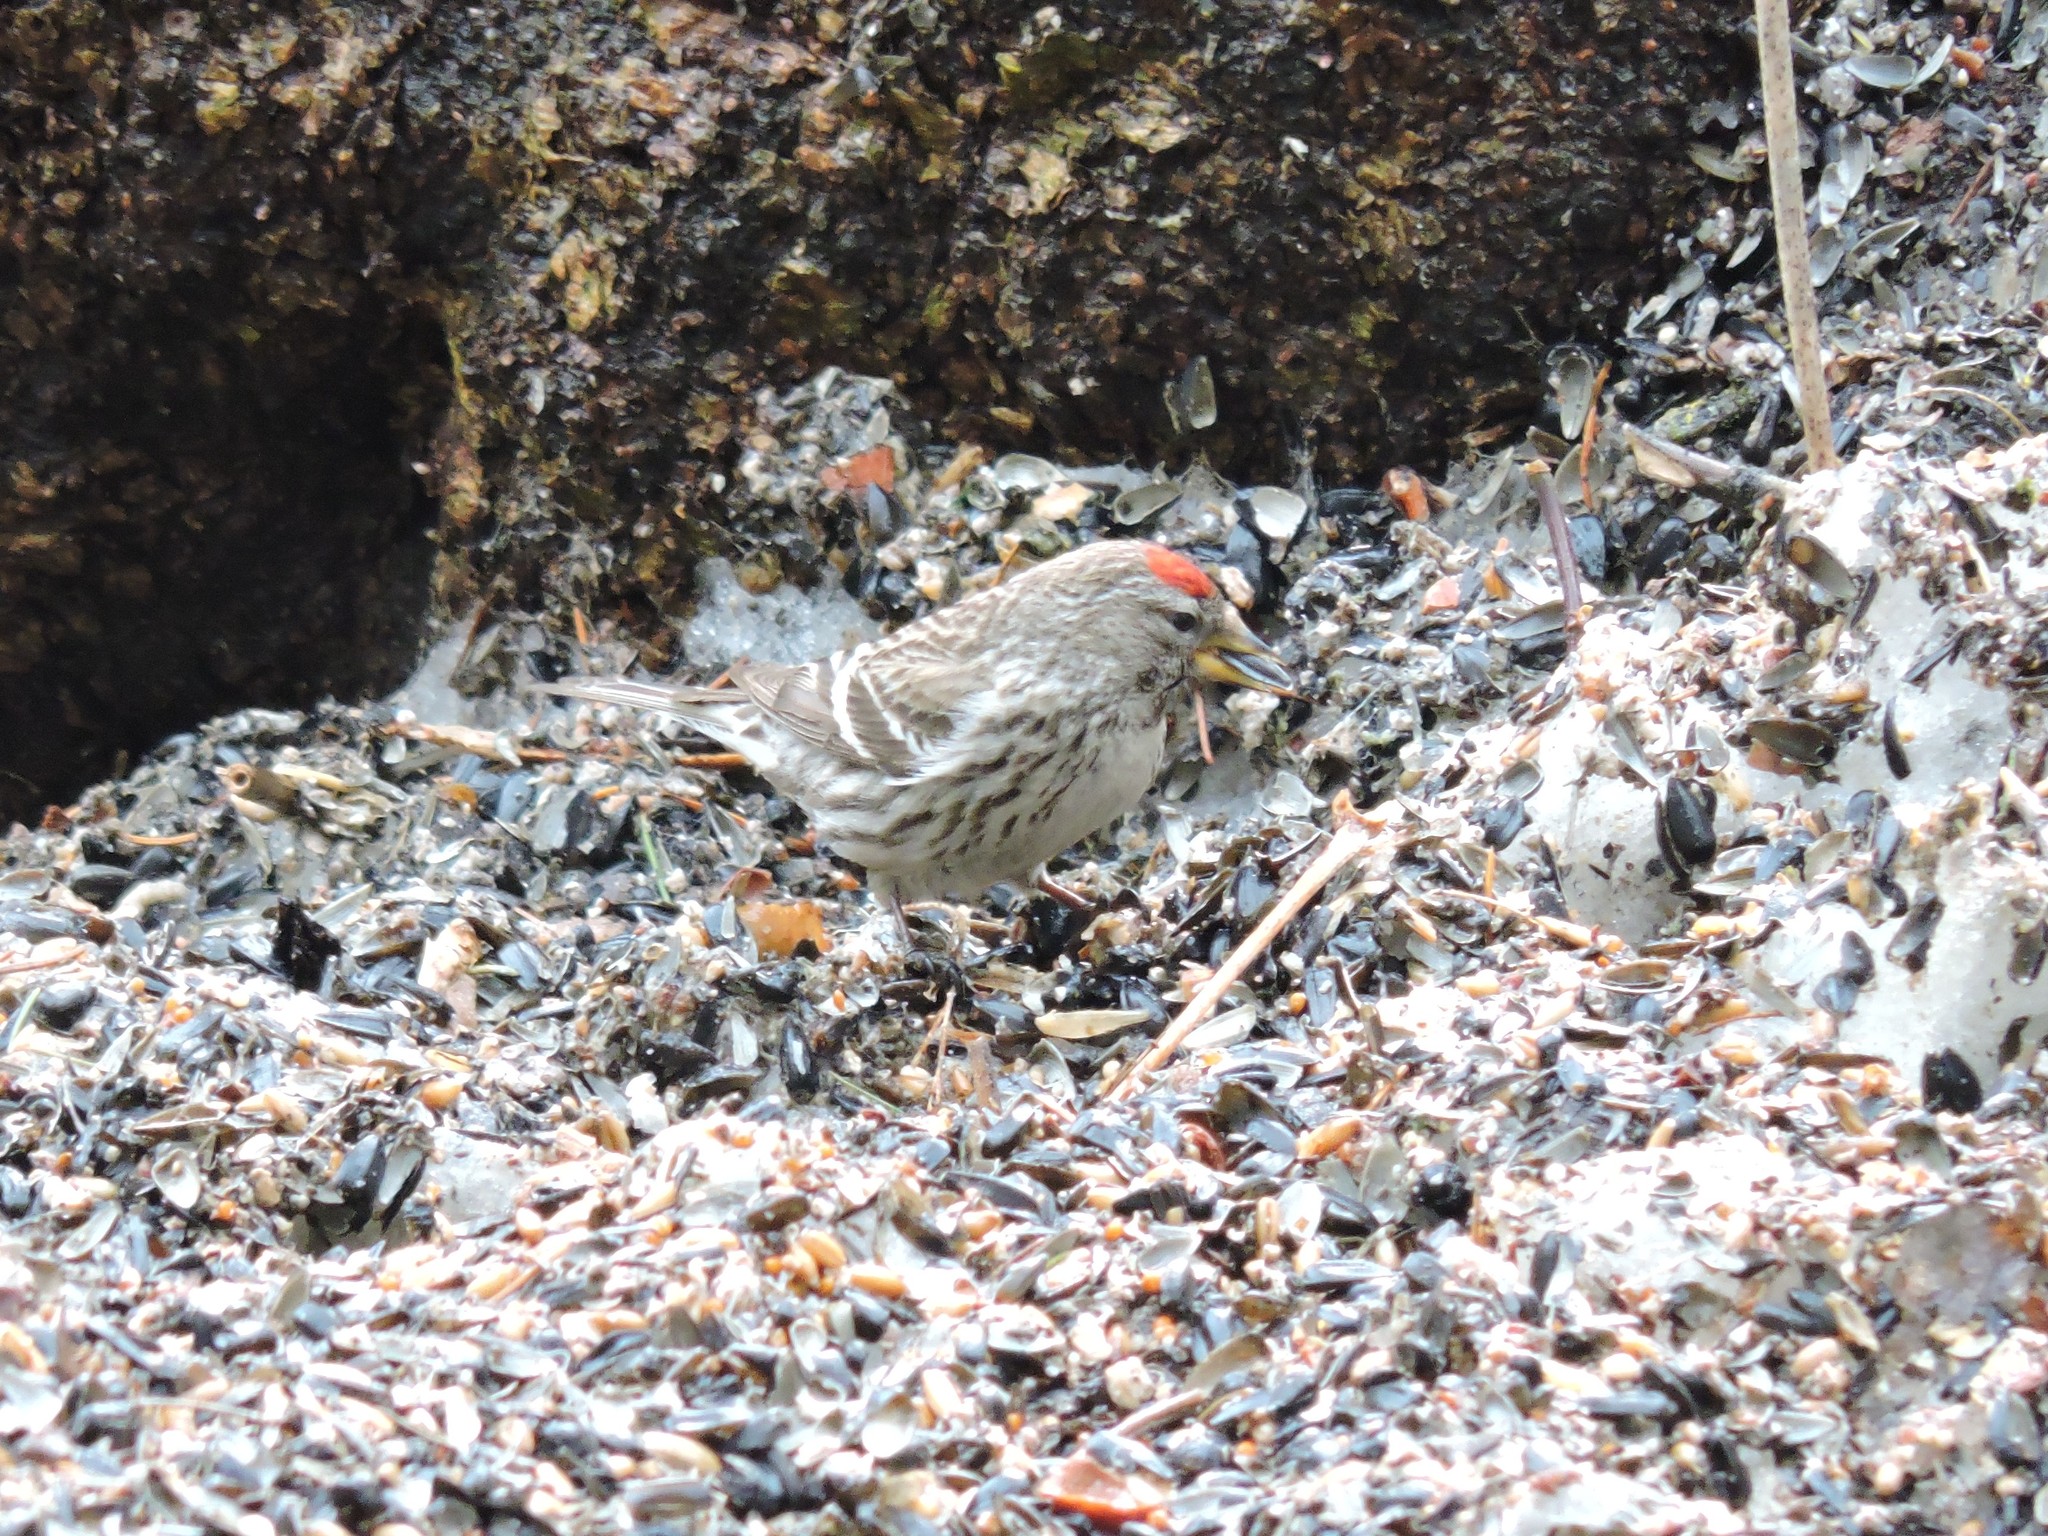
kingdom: Animalia
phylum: Chordata
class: Aves
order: Passeriformes
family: Fringillidae
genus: Acanthis
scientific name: Acanthis flammea
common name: Common redpoll
